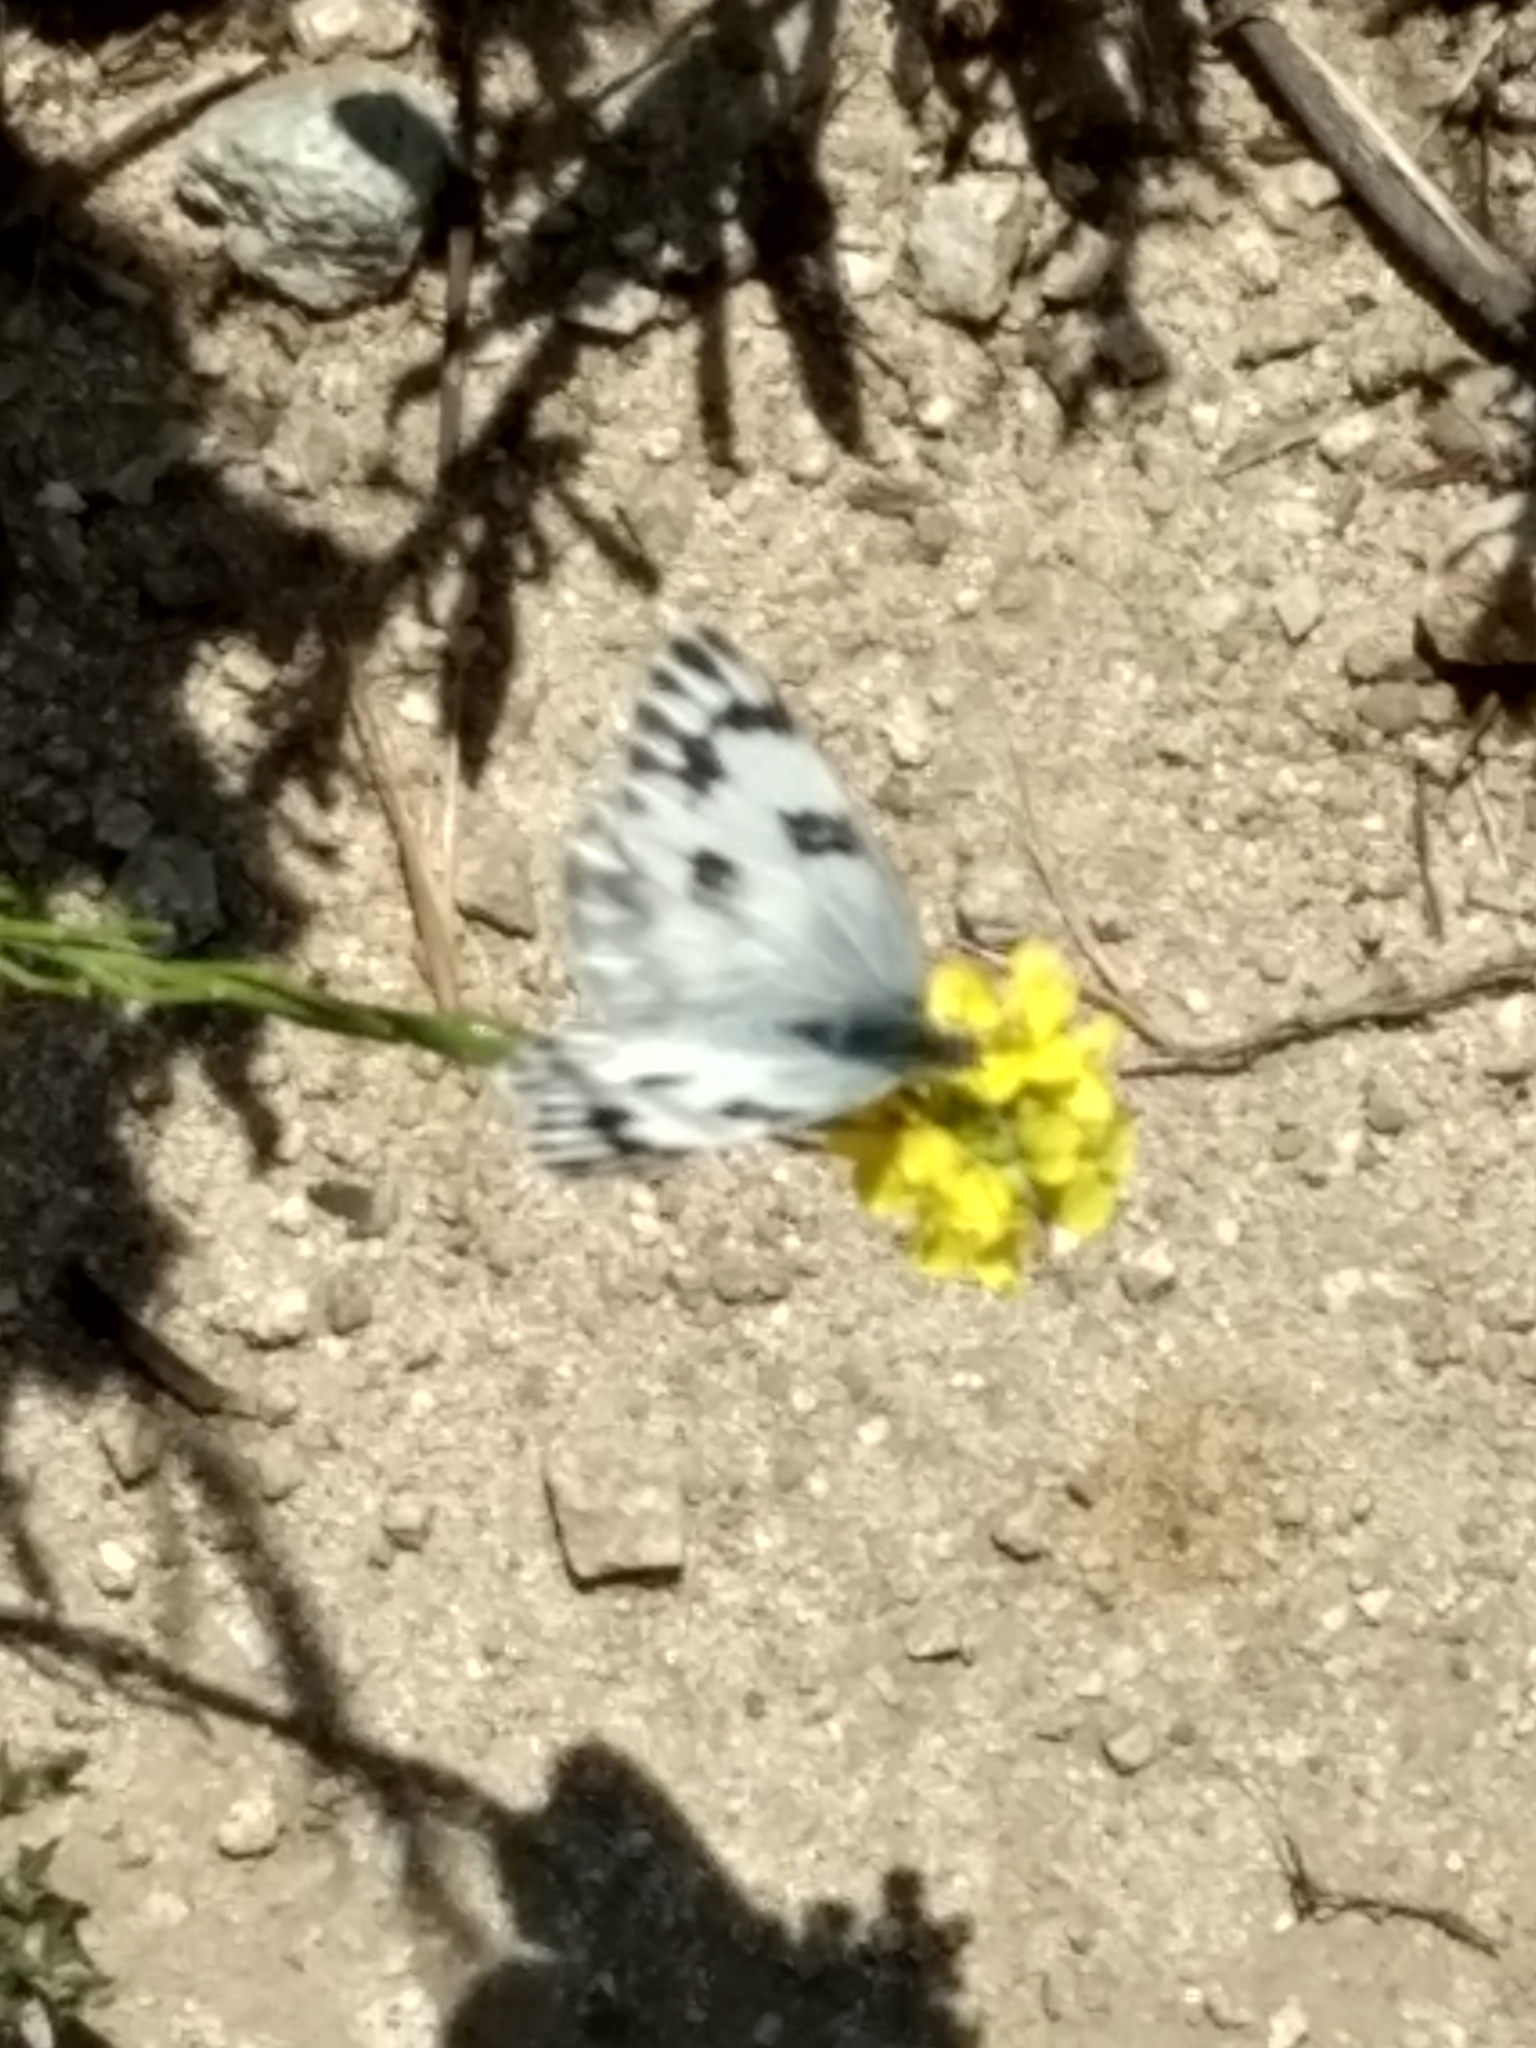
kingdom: Animalia
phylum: Arthropoda
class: Insecta
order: Lepidoptera
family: Pieridae
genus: Pontia
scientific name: Pontia protodice
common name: Checkered white
